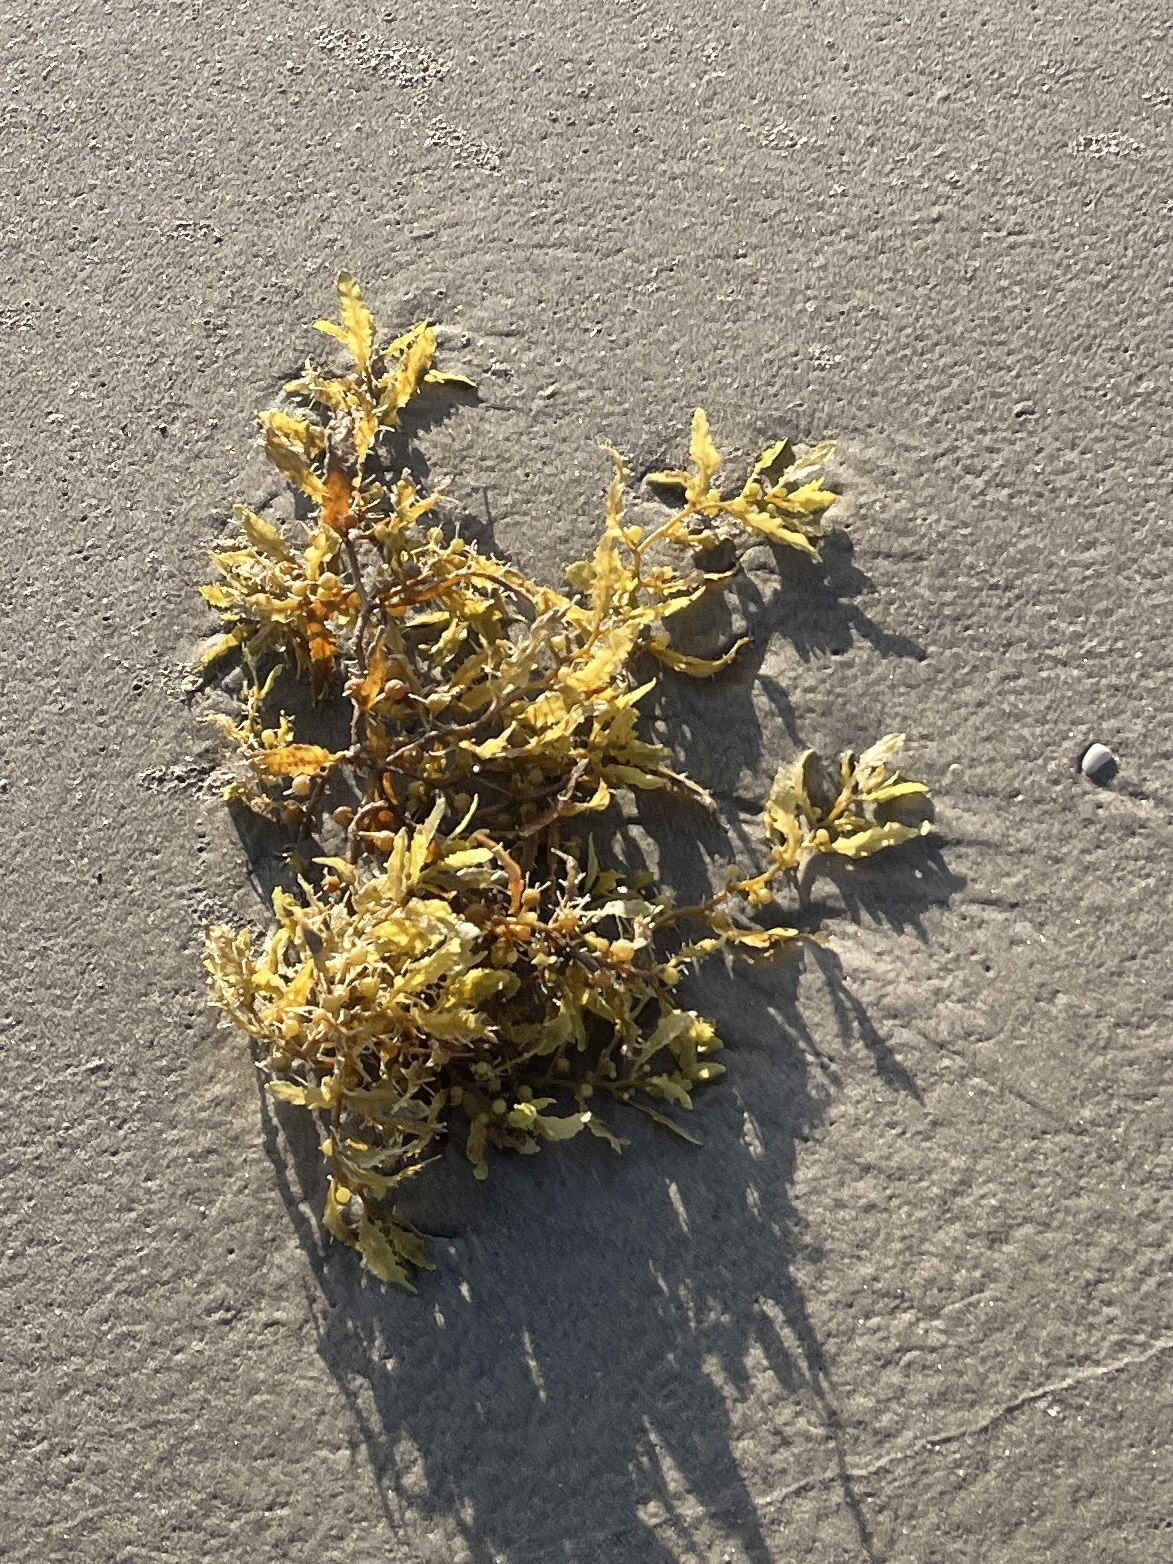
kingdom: Chromista
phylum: Ochrophyta
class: Phaeophyceae
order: Fucales
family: Sargassaceae
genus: Sargassum
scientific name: Sargassum fluitans
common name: Sargassum seaweed
